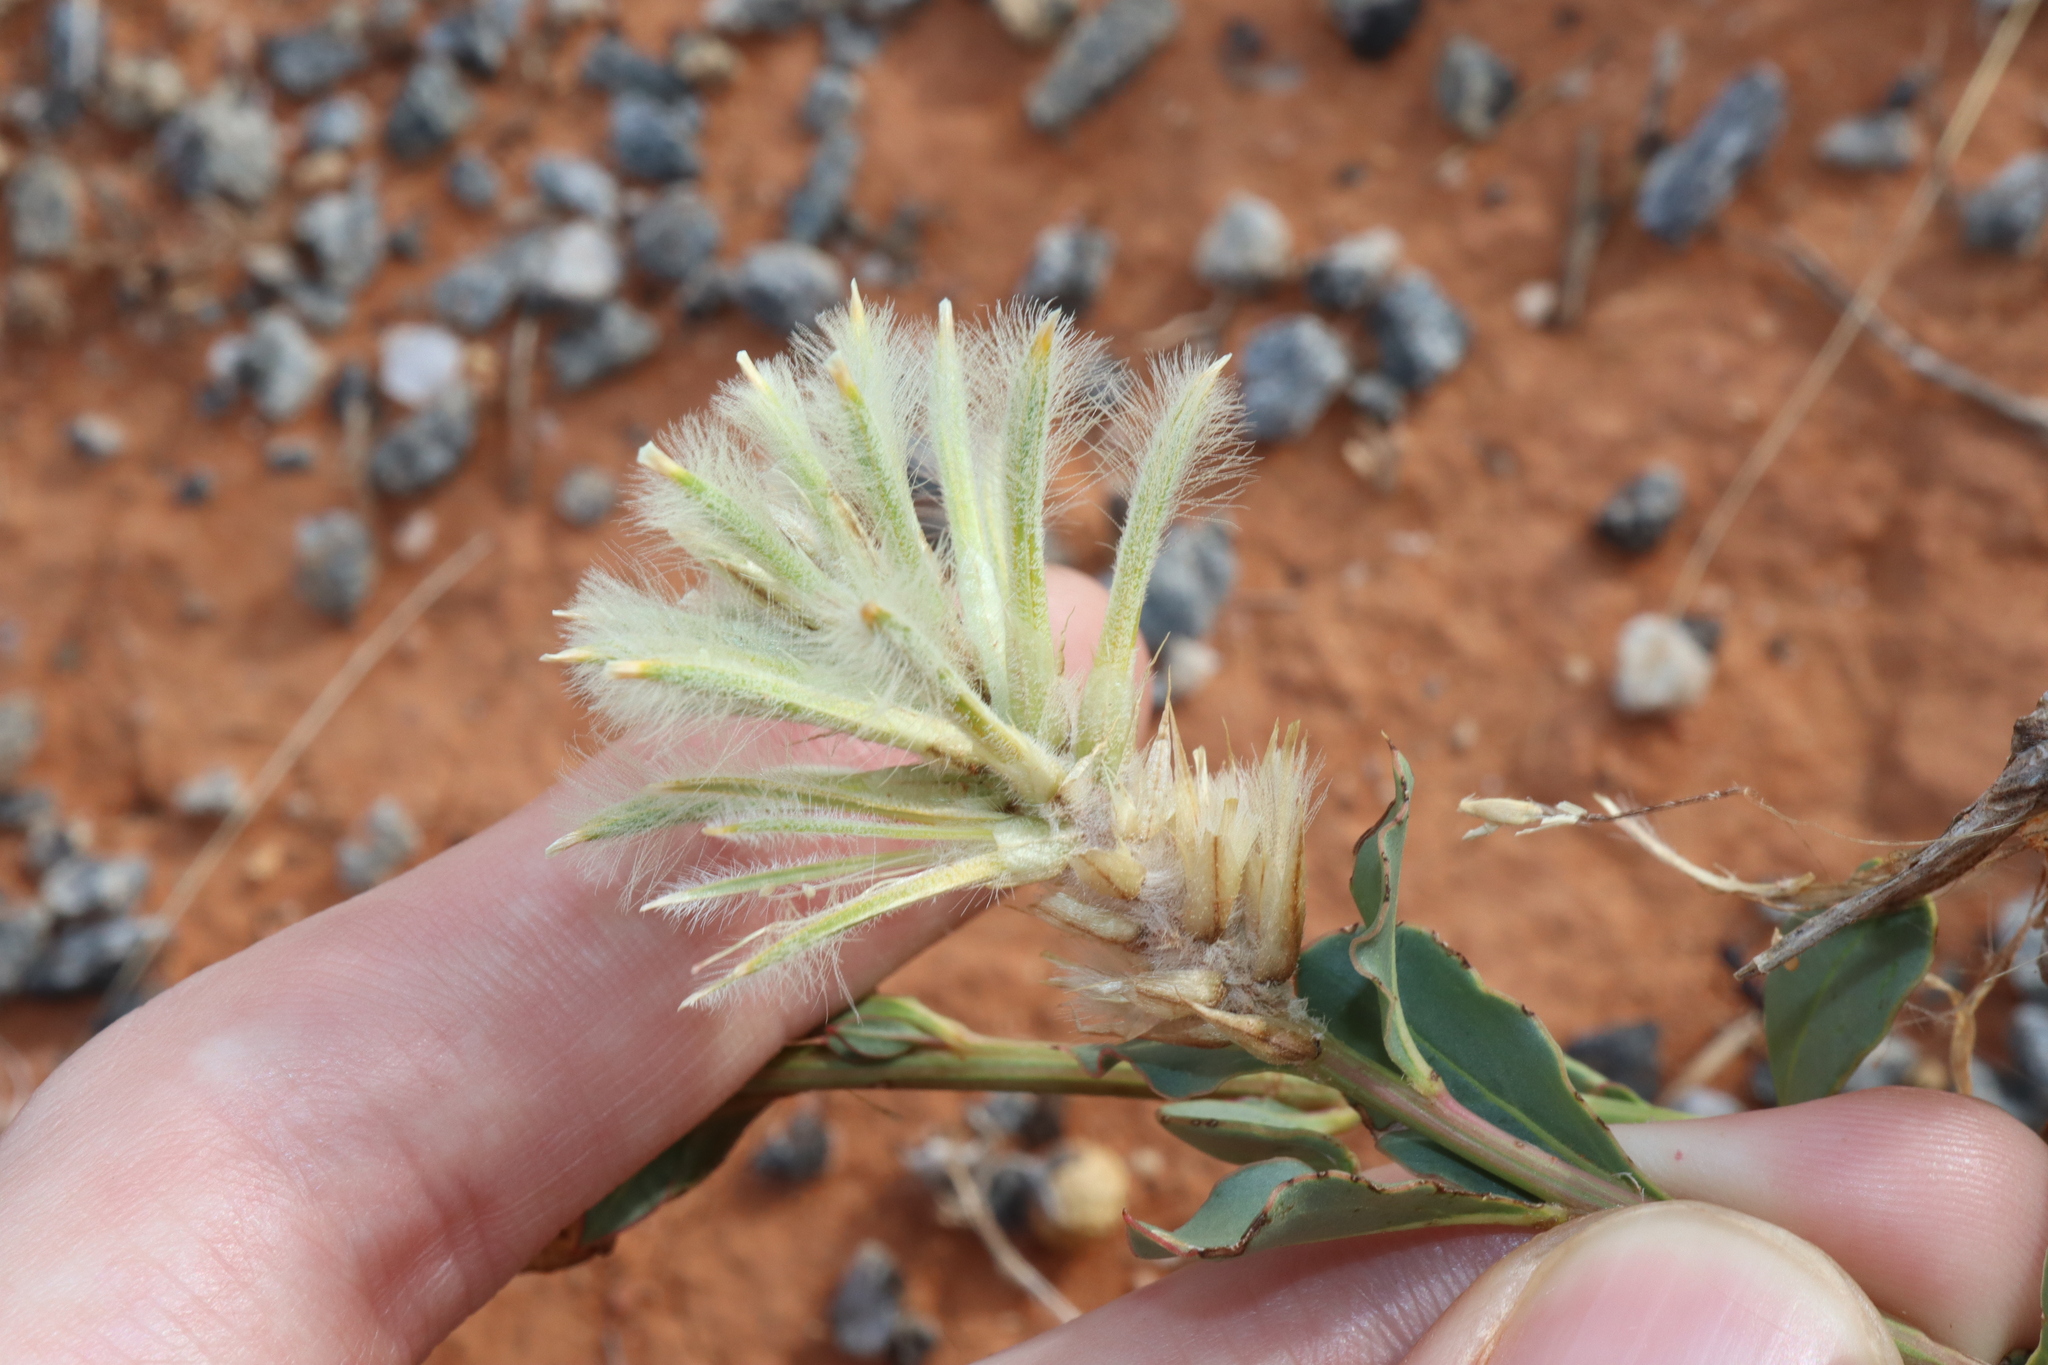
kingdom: Plantae
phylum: Tracheophyta
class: Magnoliopsida
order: Caryophyllales
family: Amaranthaceae
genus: Ptilotus
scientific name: Ptilotus nobilis
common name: Regal-foxtail
